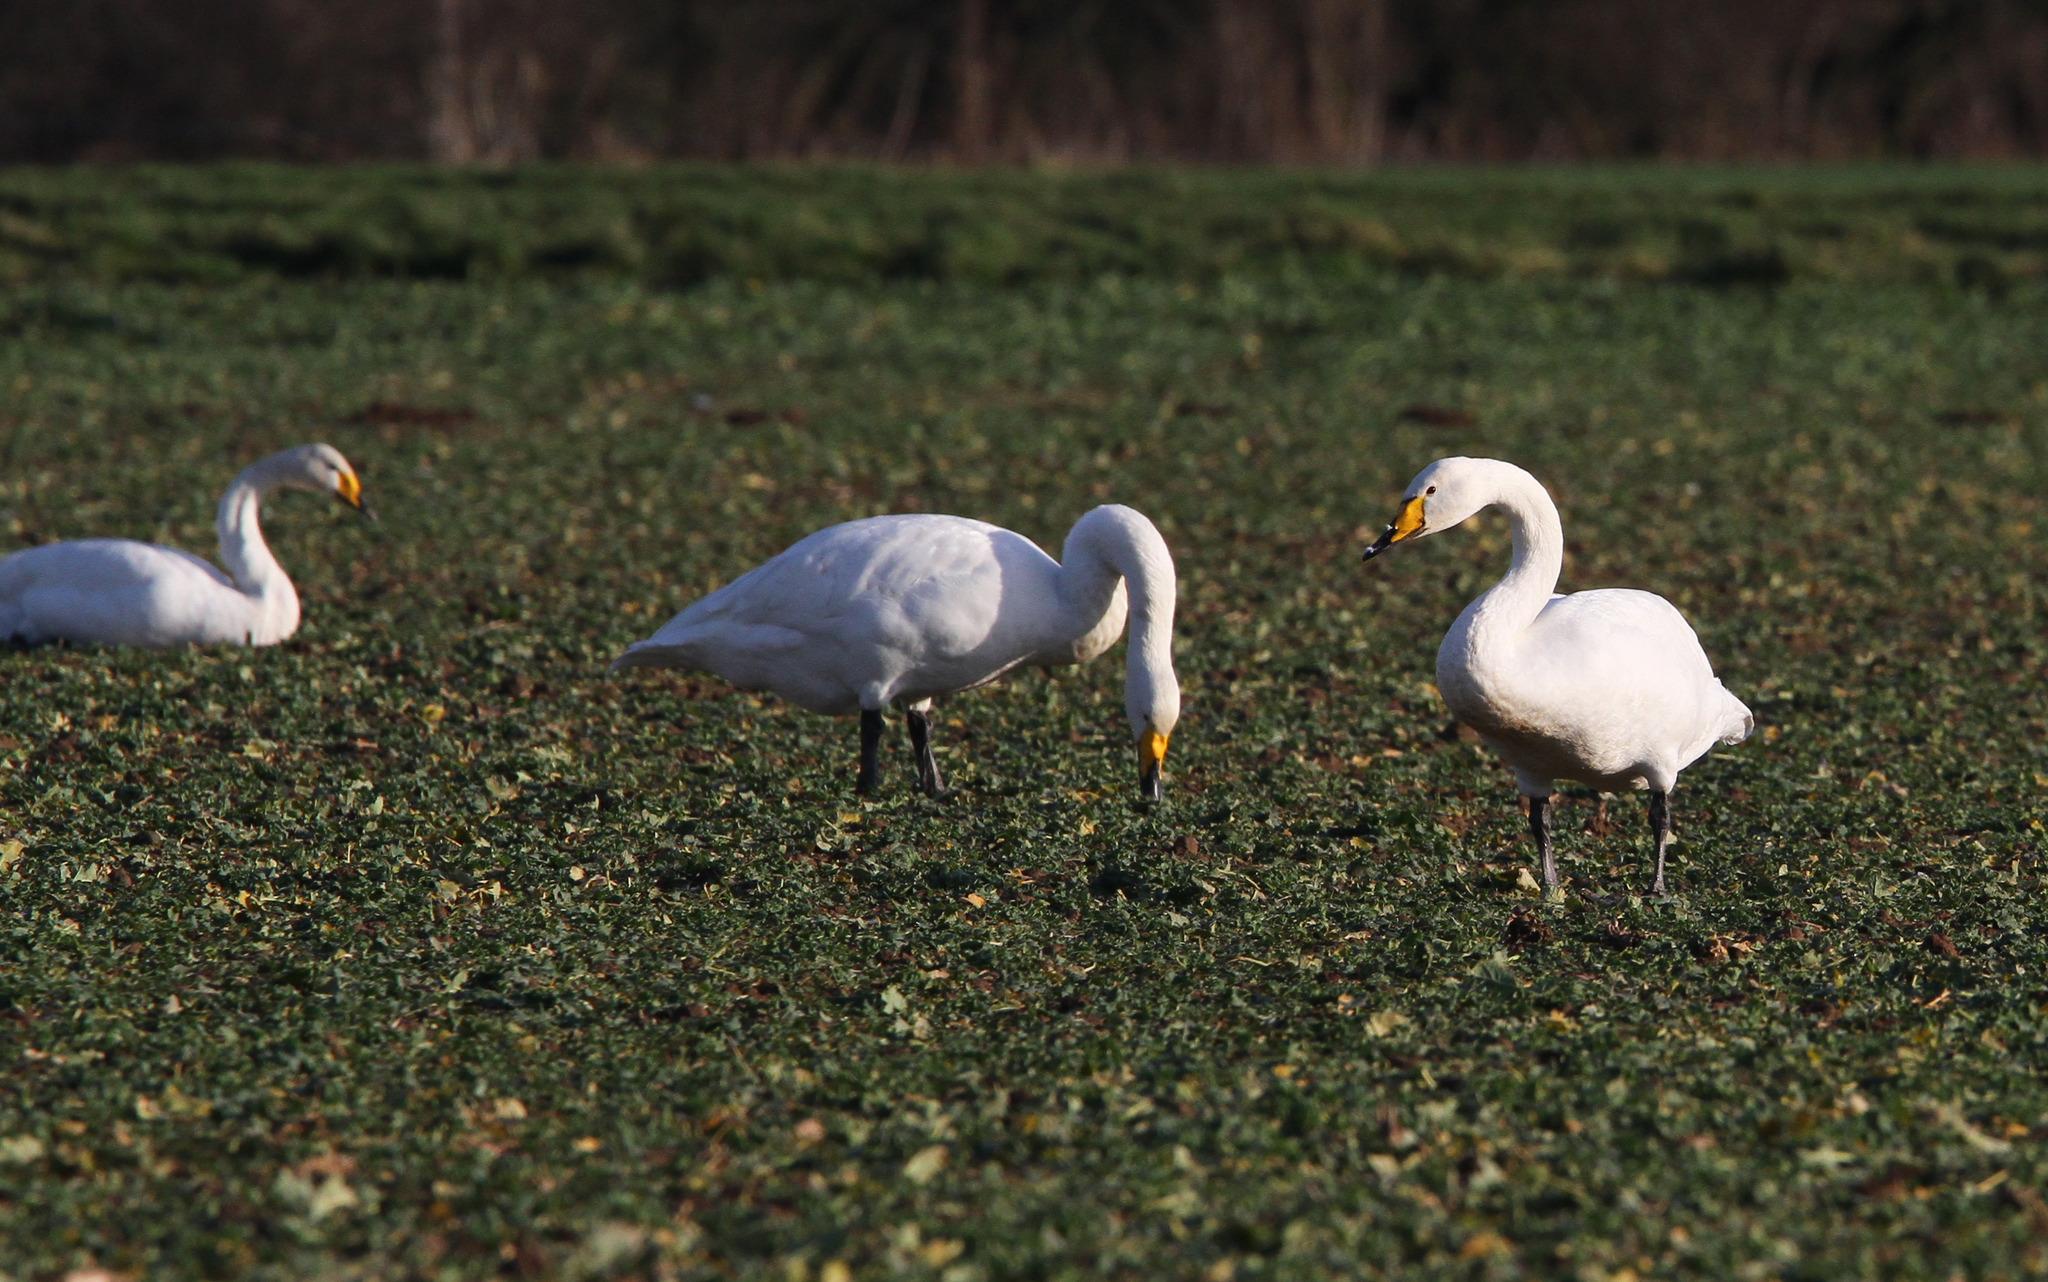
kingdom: Animalia
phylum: Chordata
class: Aves
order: Anseriformes
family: Anatidae
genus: Cygnus
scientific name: Cygnus cygnus
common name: Whooper swan
